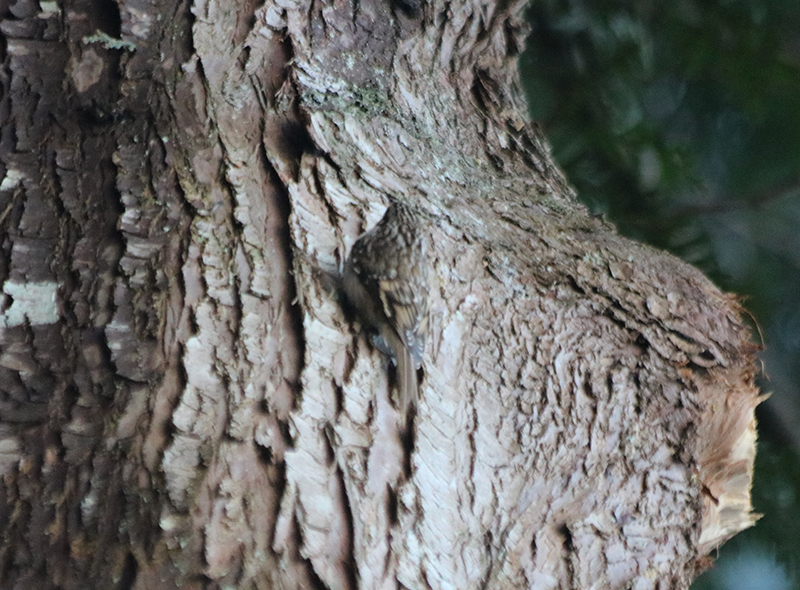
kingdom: Animalia
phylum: Chordata
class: Aves
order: Passeriformes
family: Certhiidae
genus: Certhia
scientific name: Certhia americana
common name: Brown creeper
